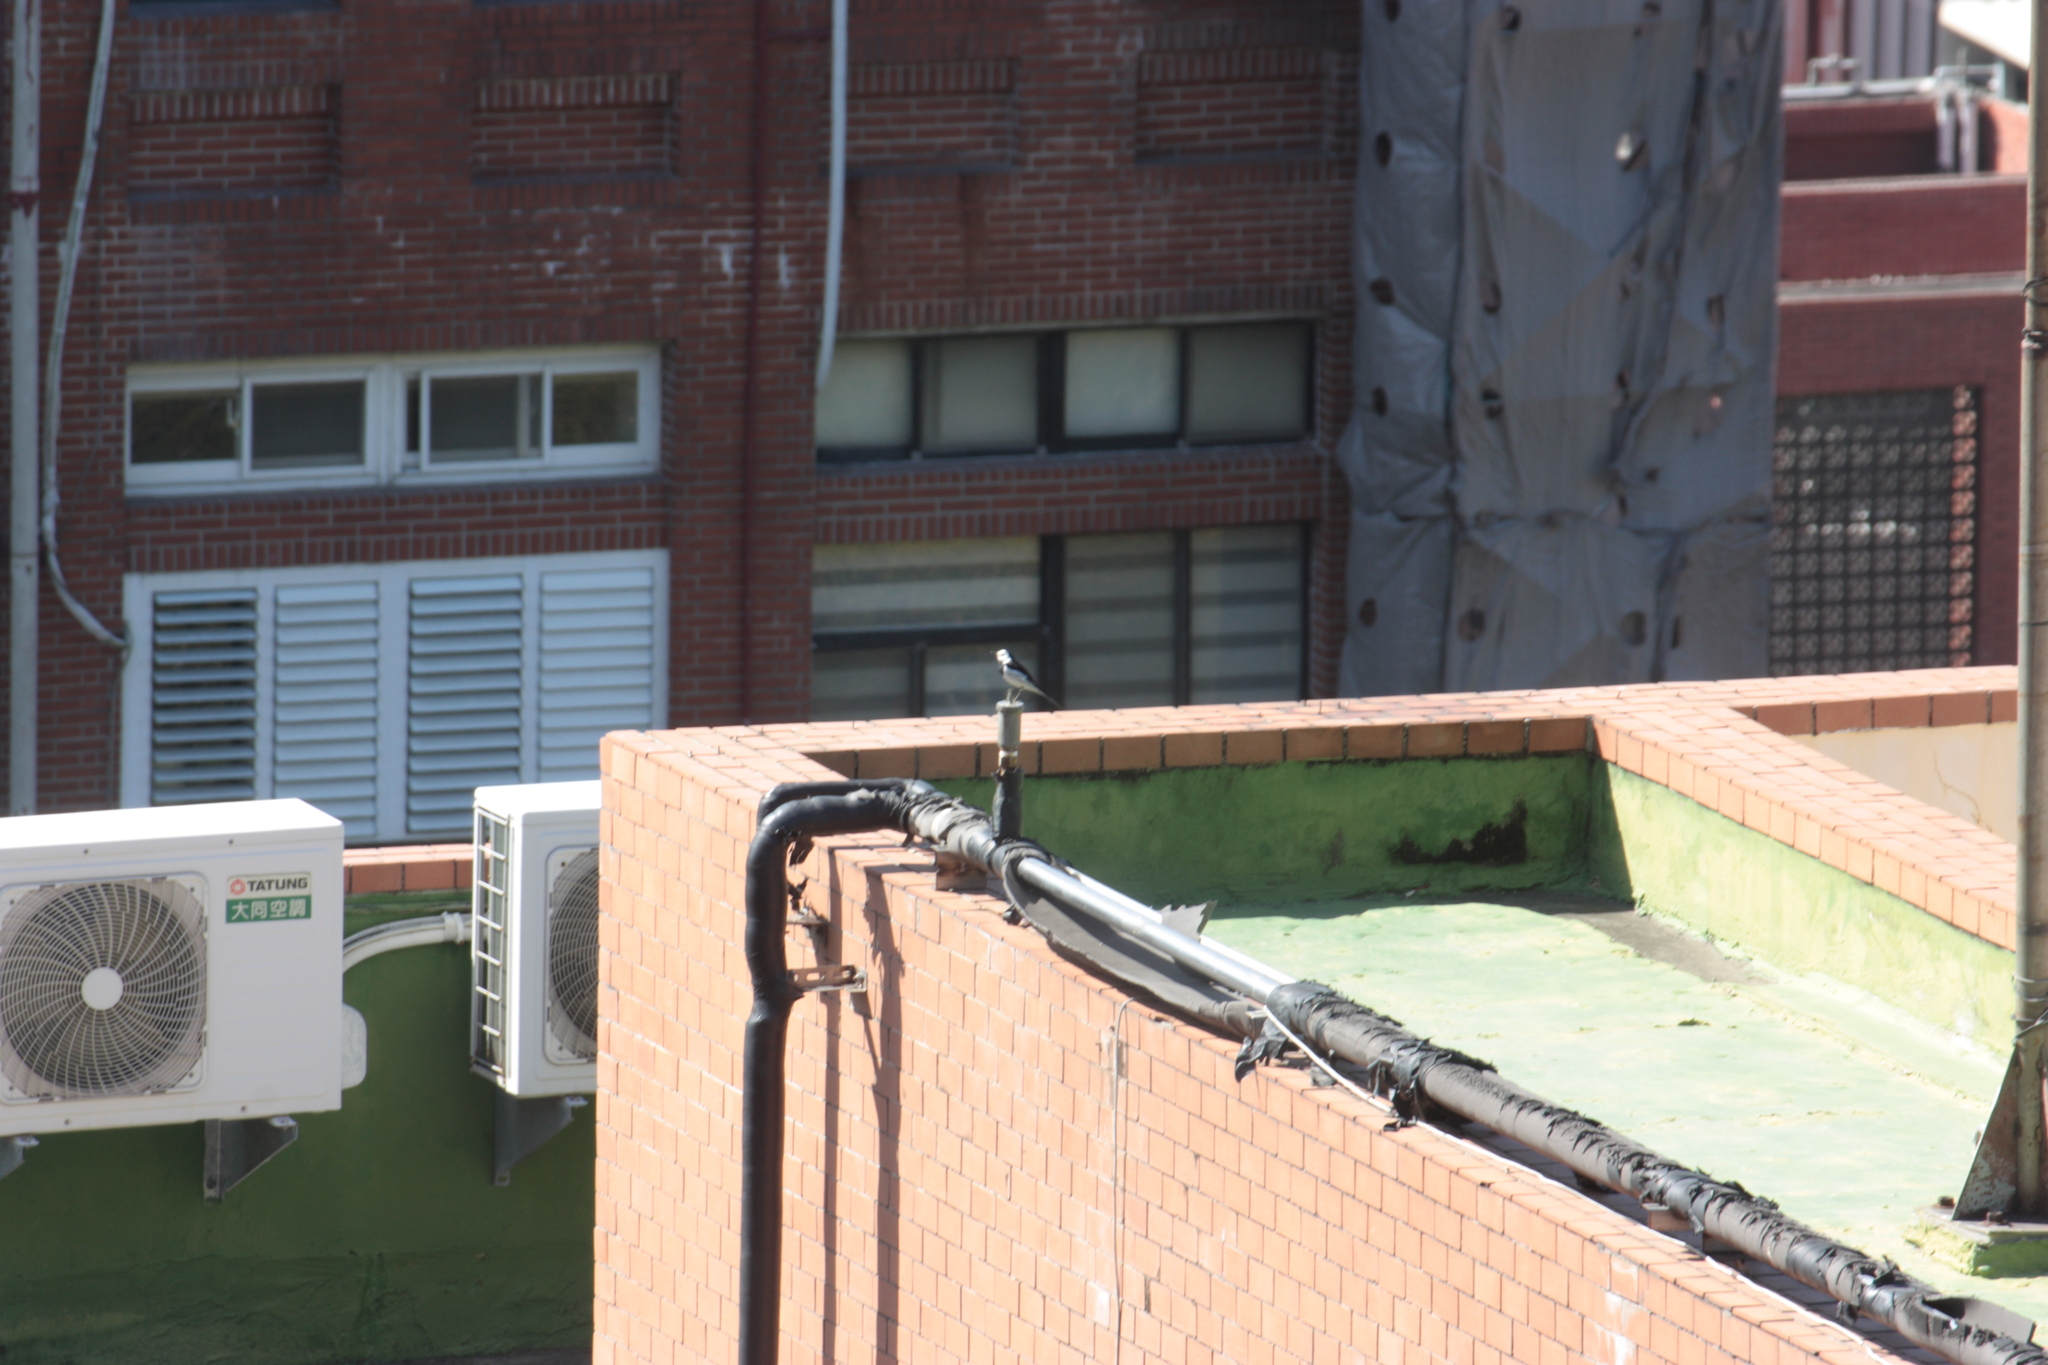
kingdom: Animalia
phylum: Chordata
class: Aves
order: Passeriformes
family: Motacillidae
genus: Motacilla
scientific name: Motacilla alba
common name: White wagtail
